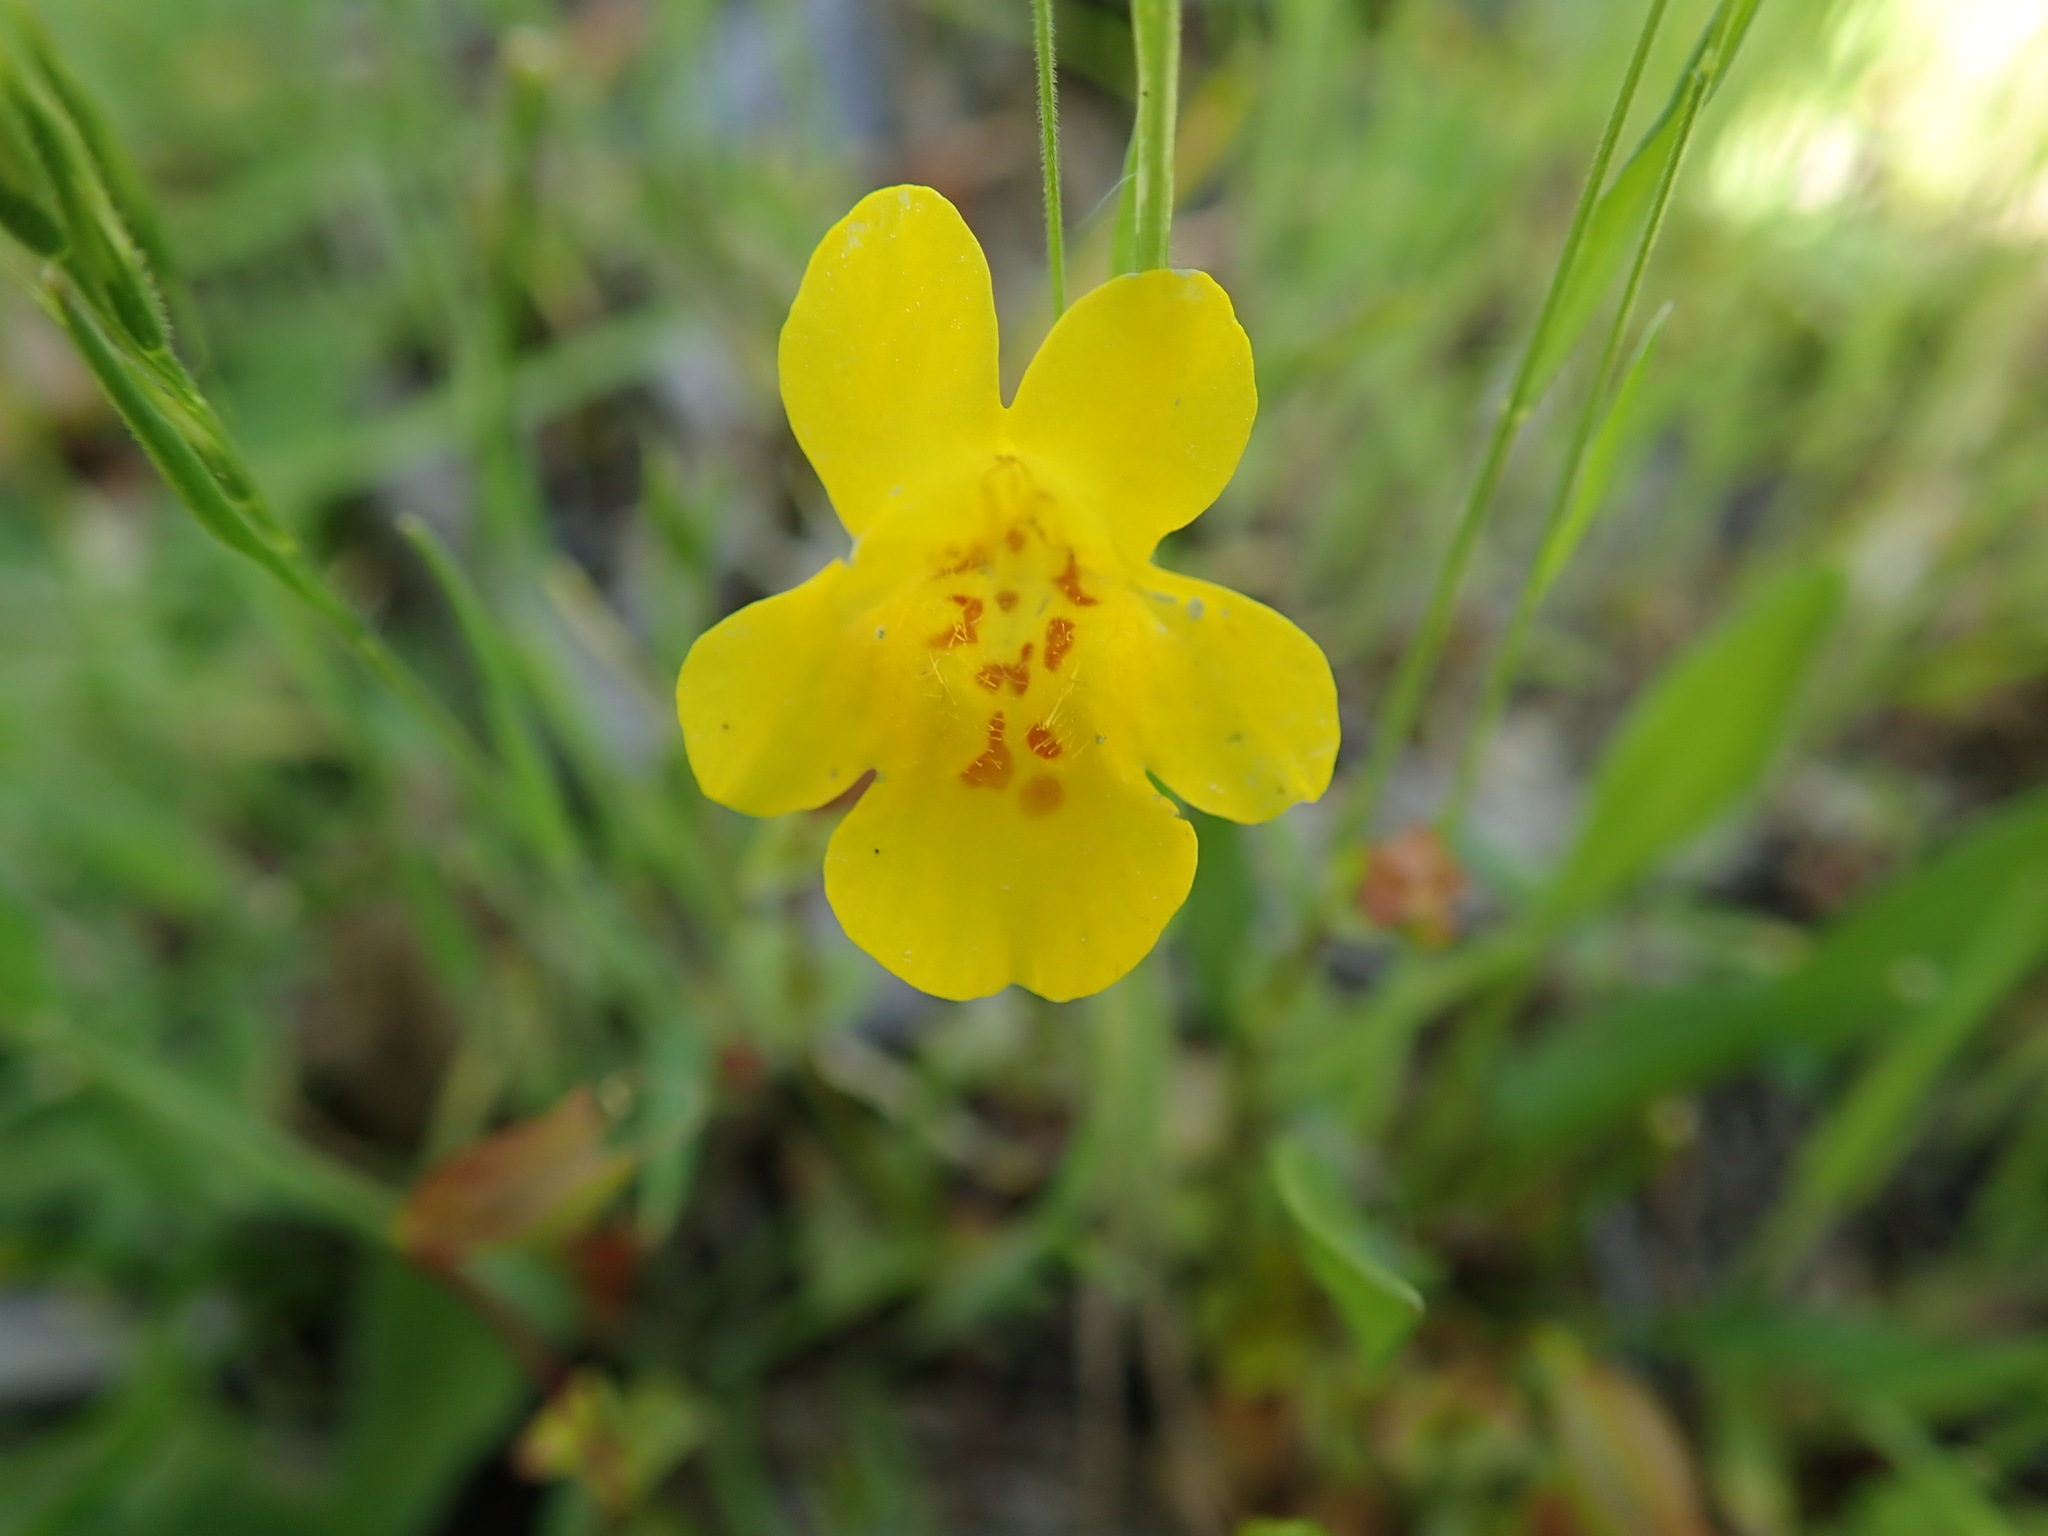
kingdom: Plantae
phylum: Tracheophyta
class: Magnoliopsida
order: Lamiales
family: Phrymaceae
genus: Erythranthe
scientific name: Erythranthe guttata
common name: Monkeyflower
